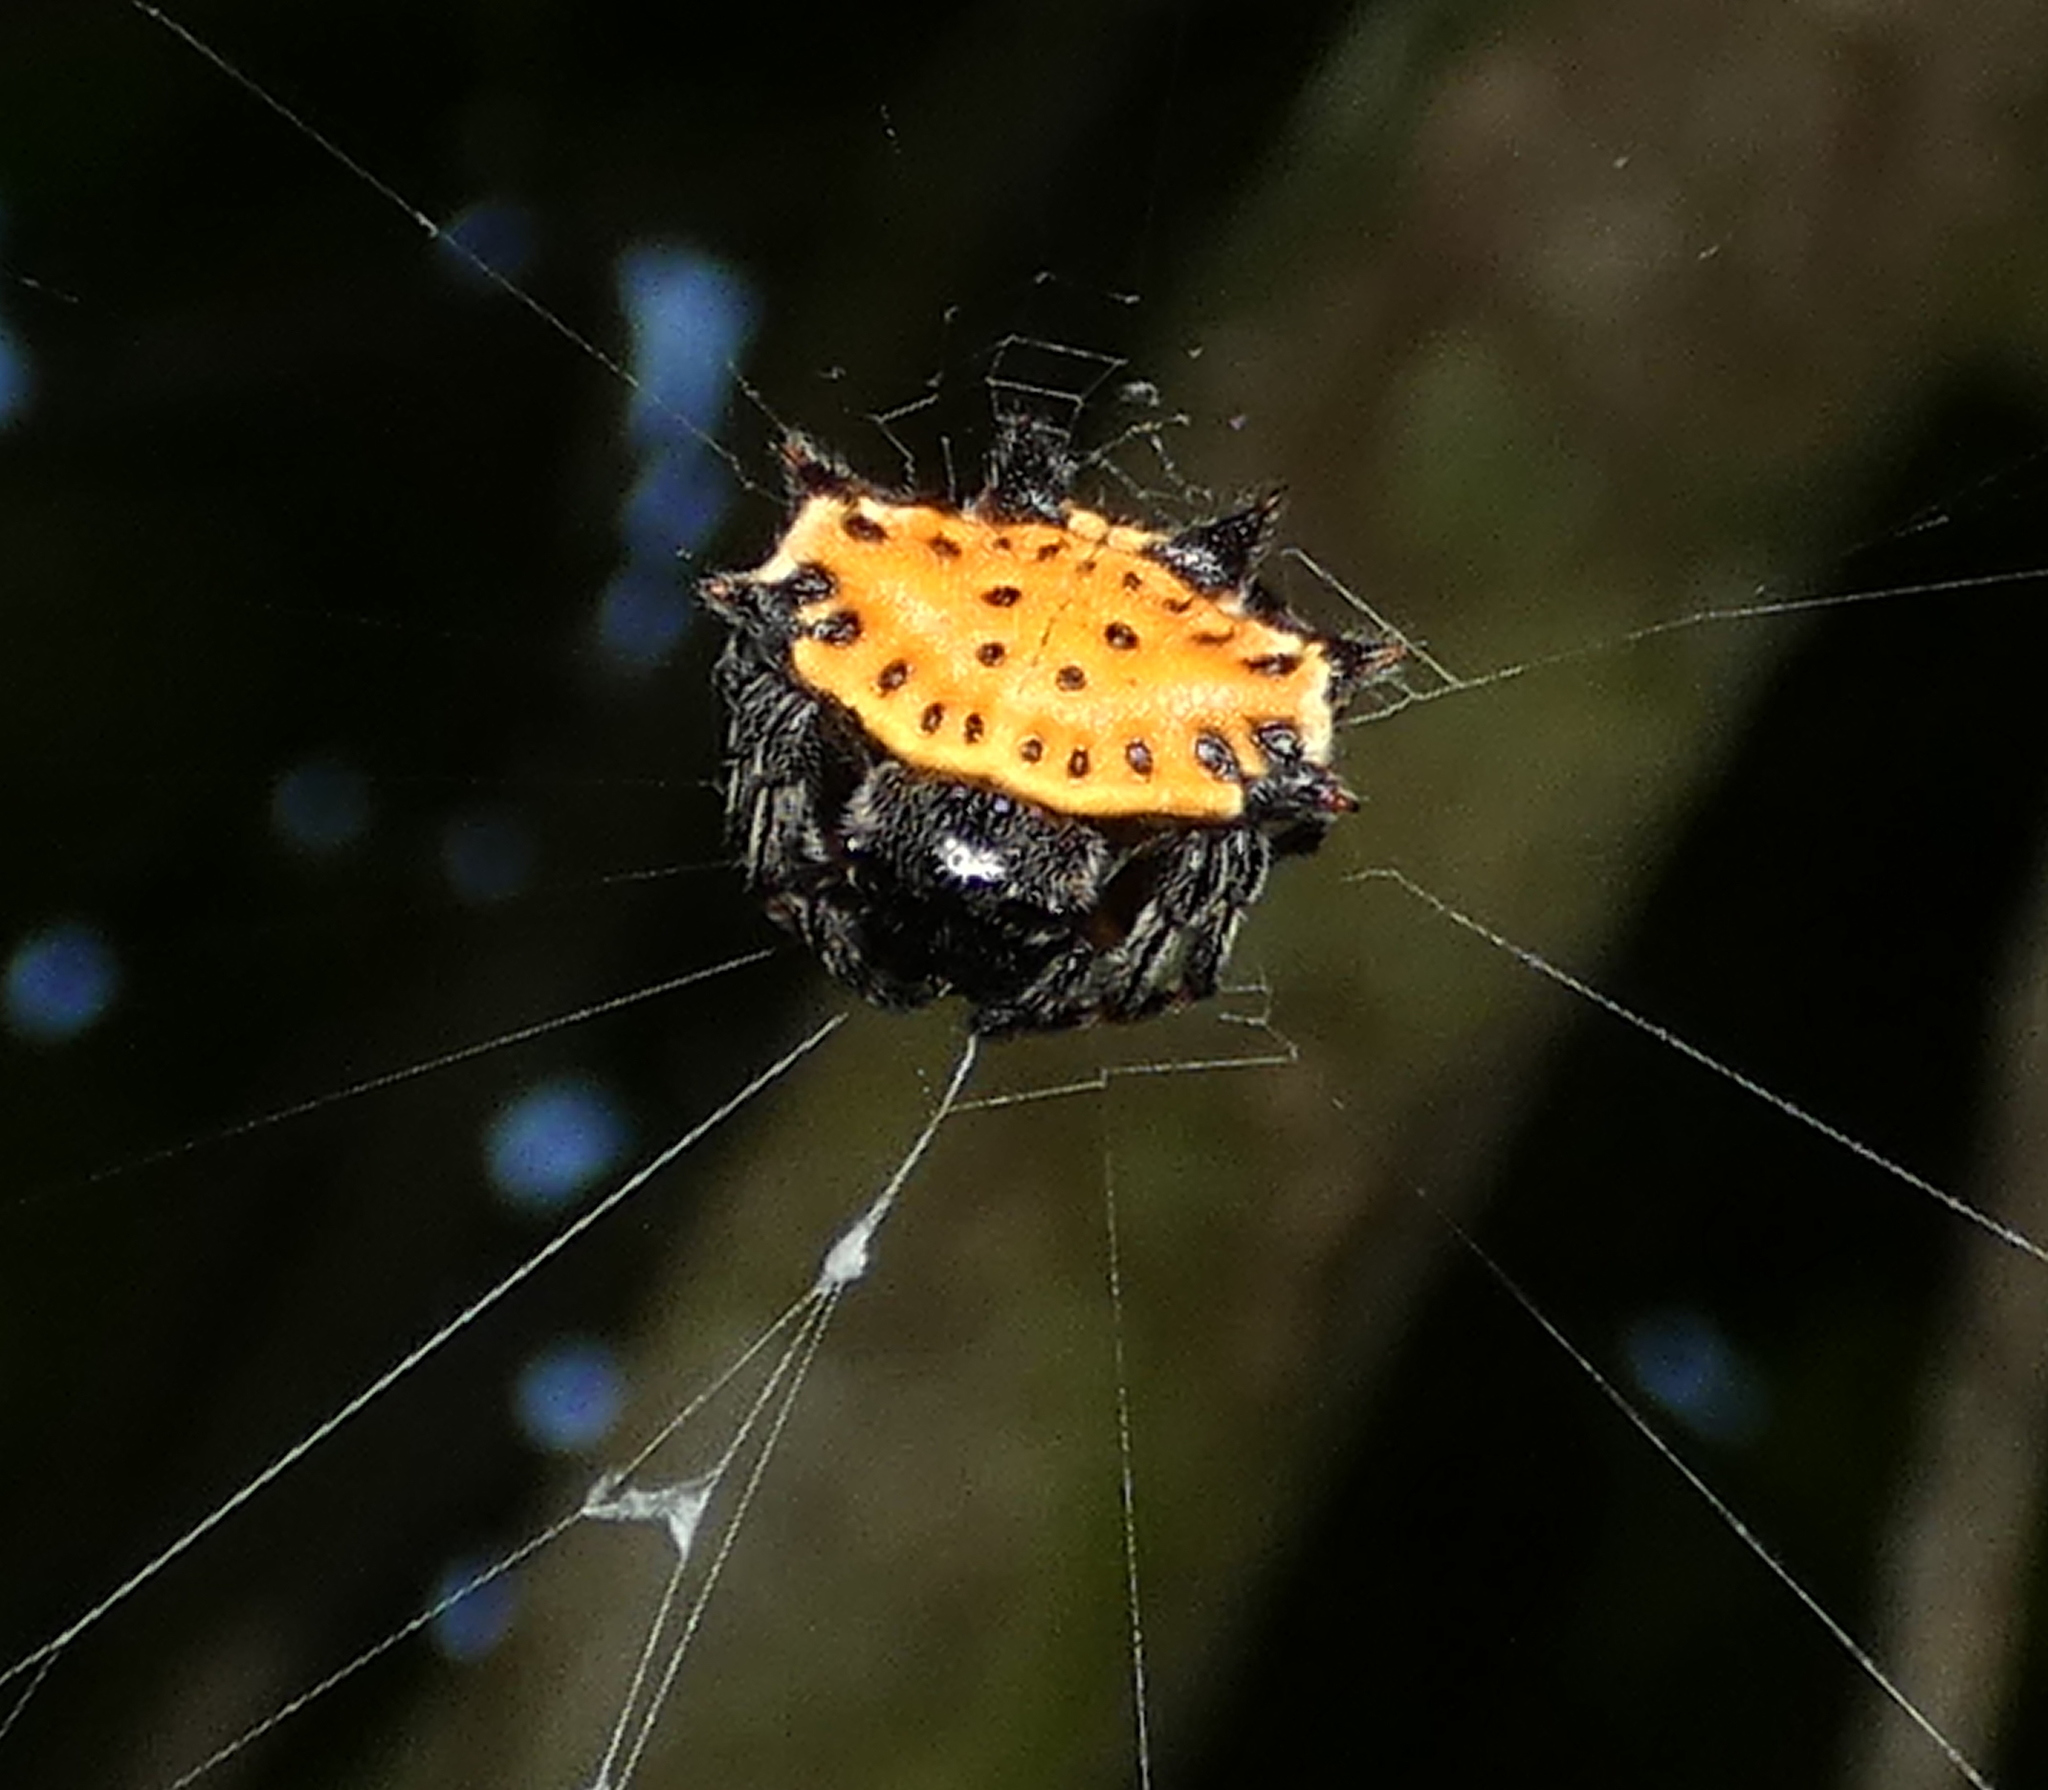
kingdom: Animalia
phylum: Arthropoda
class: Arachnida
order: Araneae
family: Araneidae
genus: Gasteracantha
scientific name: Gasteracantha cancriformis
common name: Orb weavers
